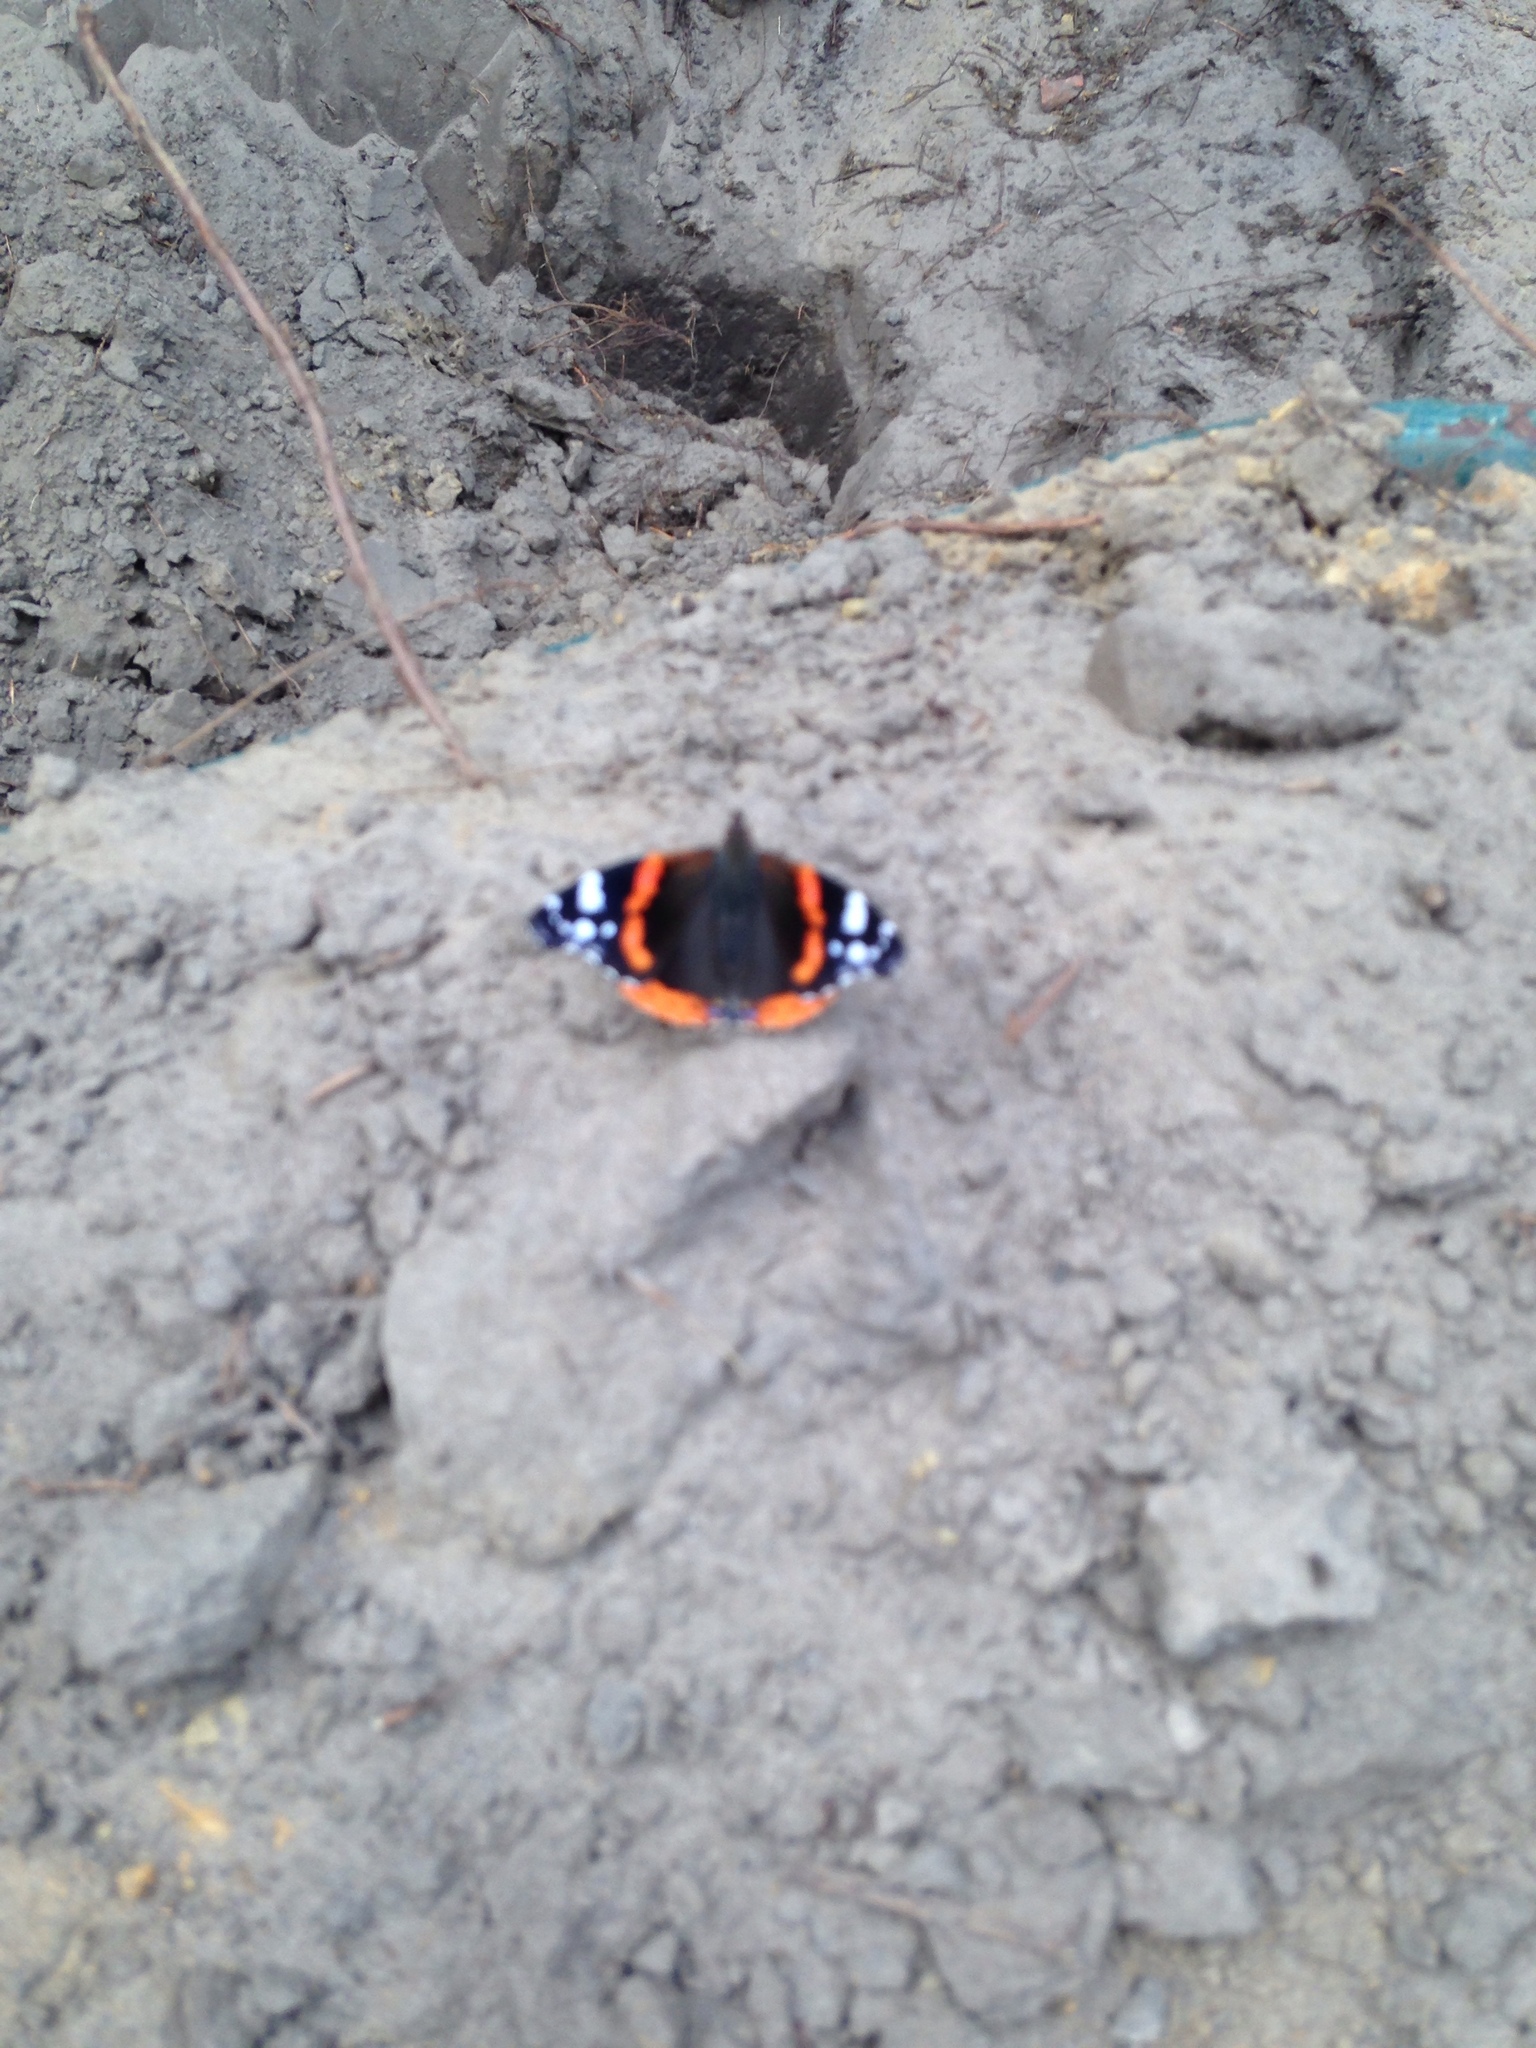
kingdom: Animalia
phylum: Arthropoda
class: Insecta
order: Lepidoptera
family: Nymphalidae
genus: Vanessa
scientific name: Vanessa atalanta
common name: Red admiral
